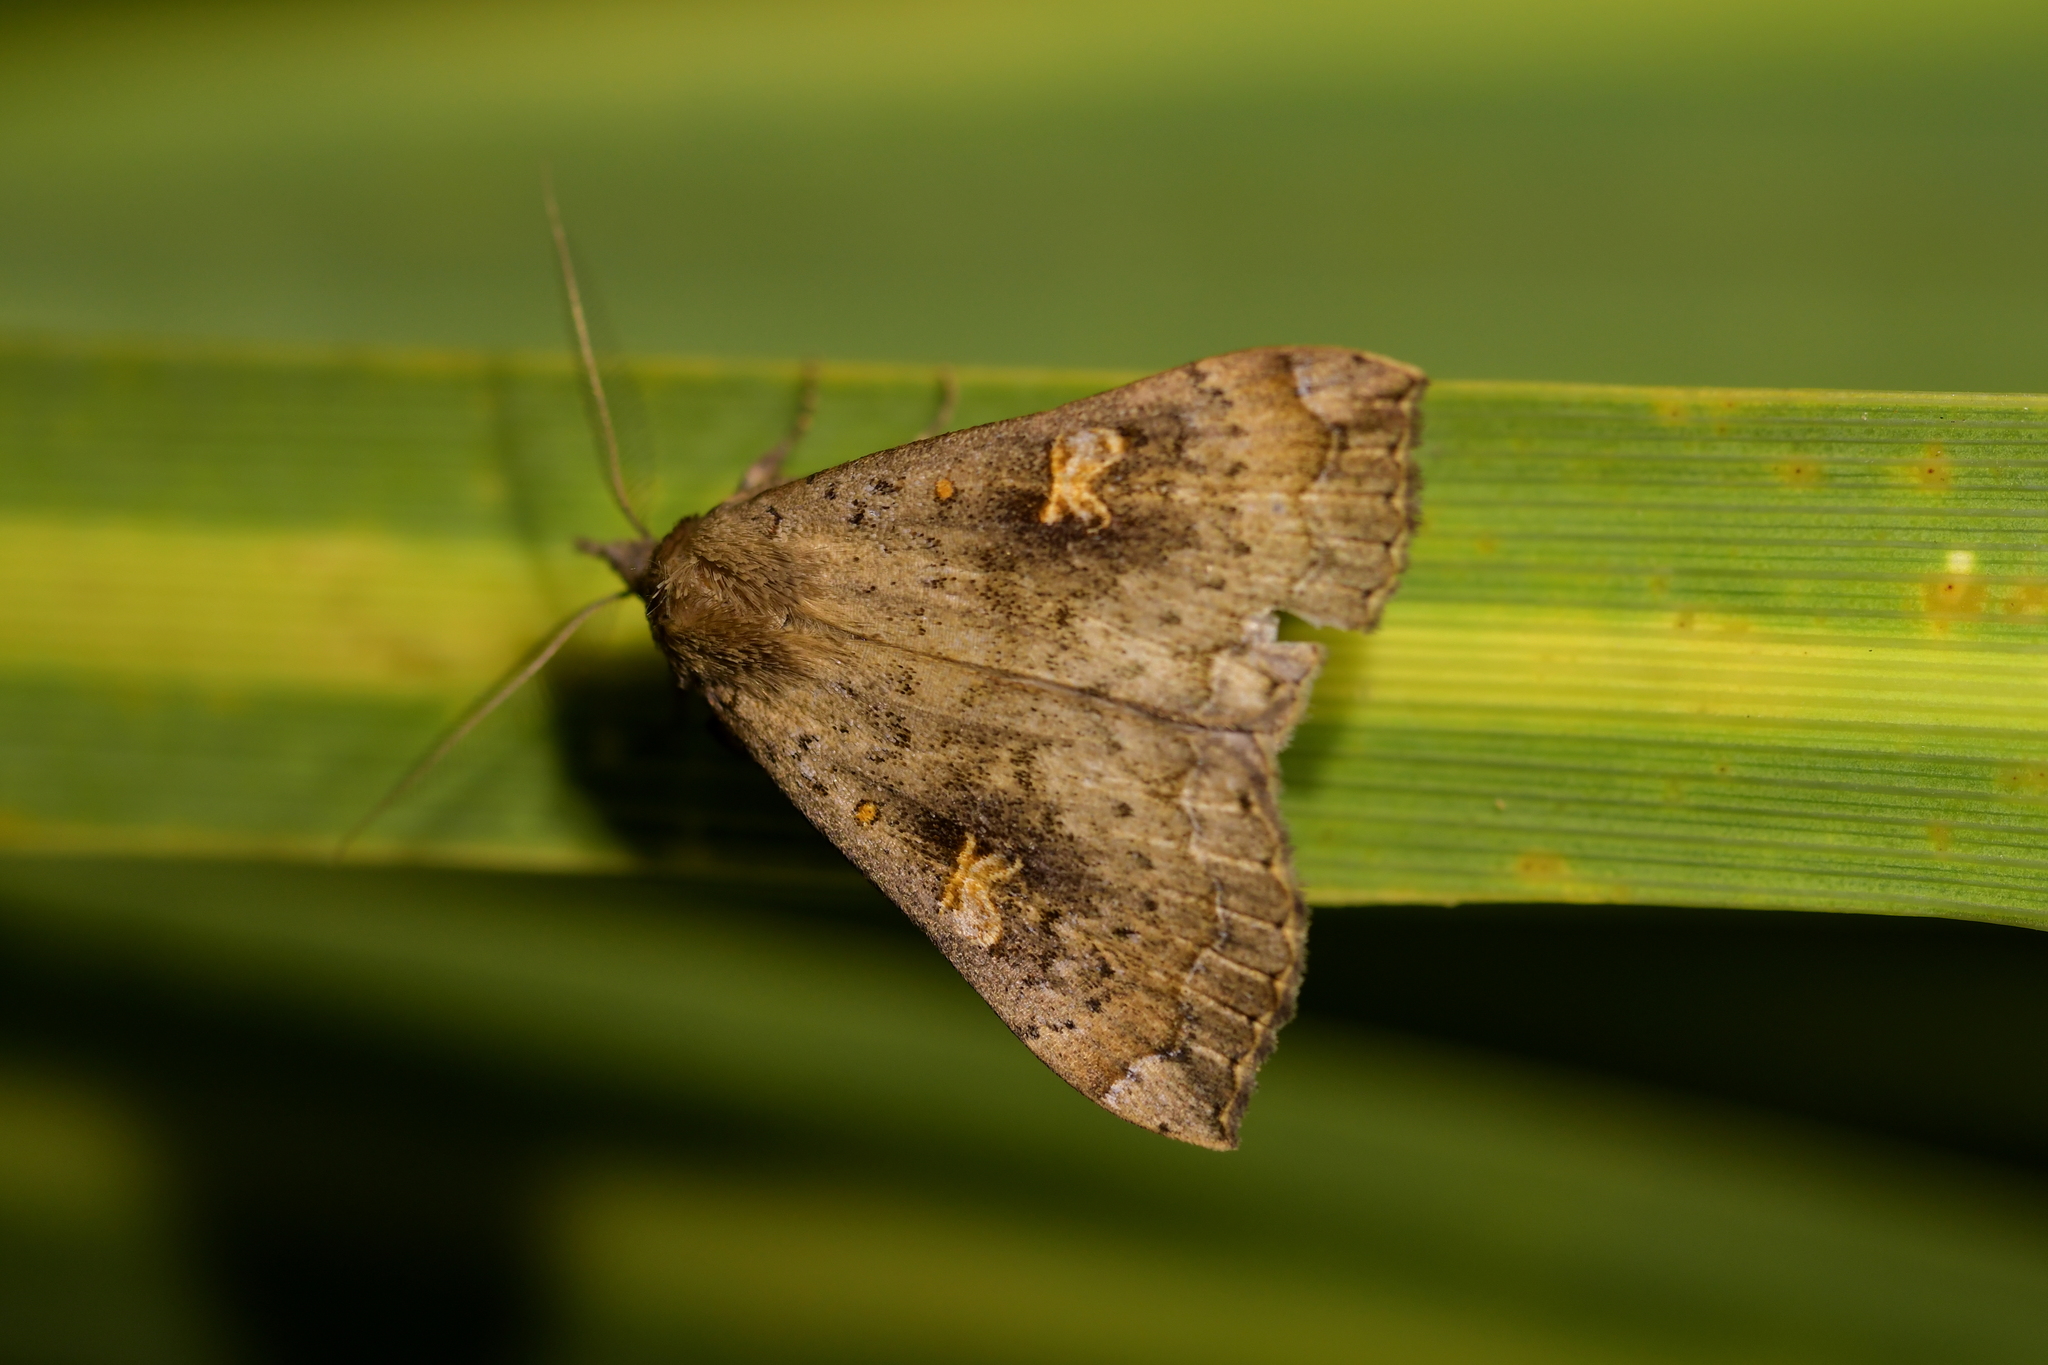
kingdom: Animalia
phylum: Arthropoda
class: Insecta
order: Lepidoptera
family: Erebidae
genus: Rhapsa
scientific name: Rhapsa scotosialis
